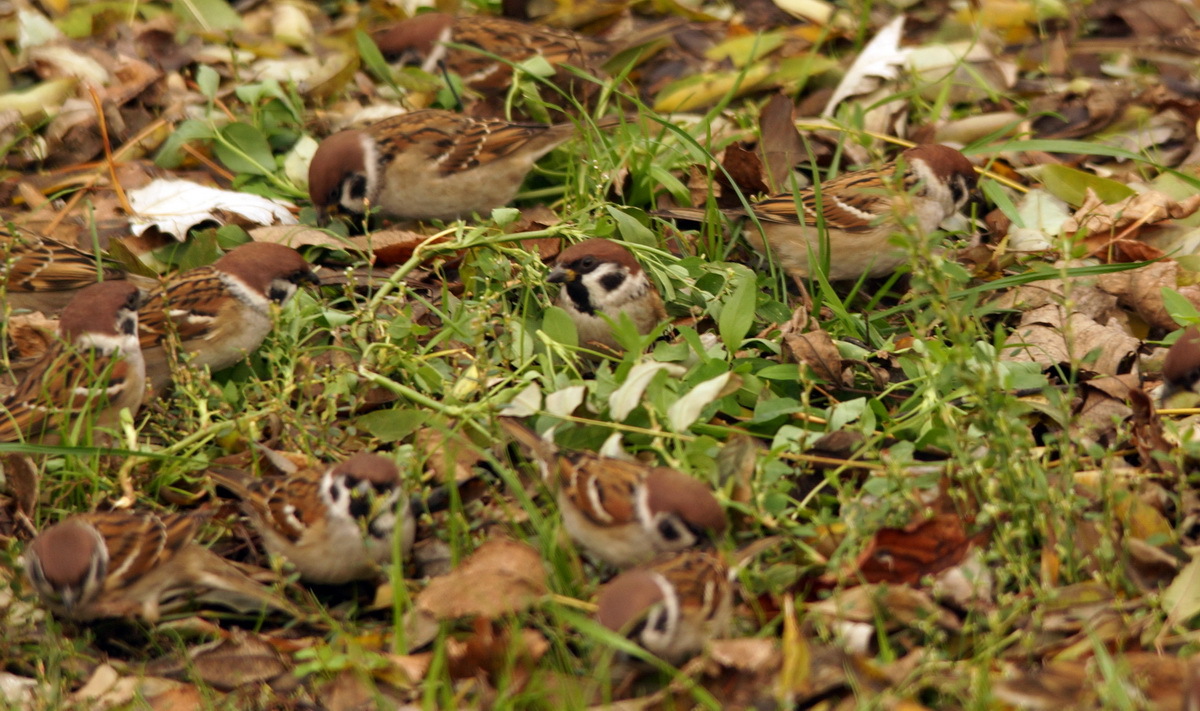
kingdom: Animalia
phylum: Chordata
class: Aves
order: Passeriformes
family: Passeridae
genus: Passer
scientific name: Passer montanus
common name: Eurasian tree sparrow
